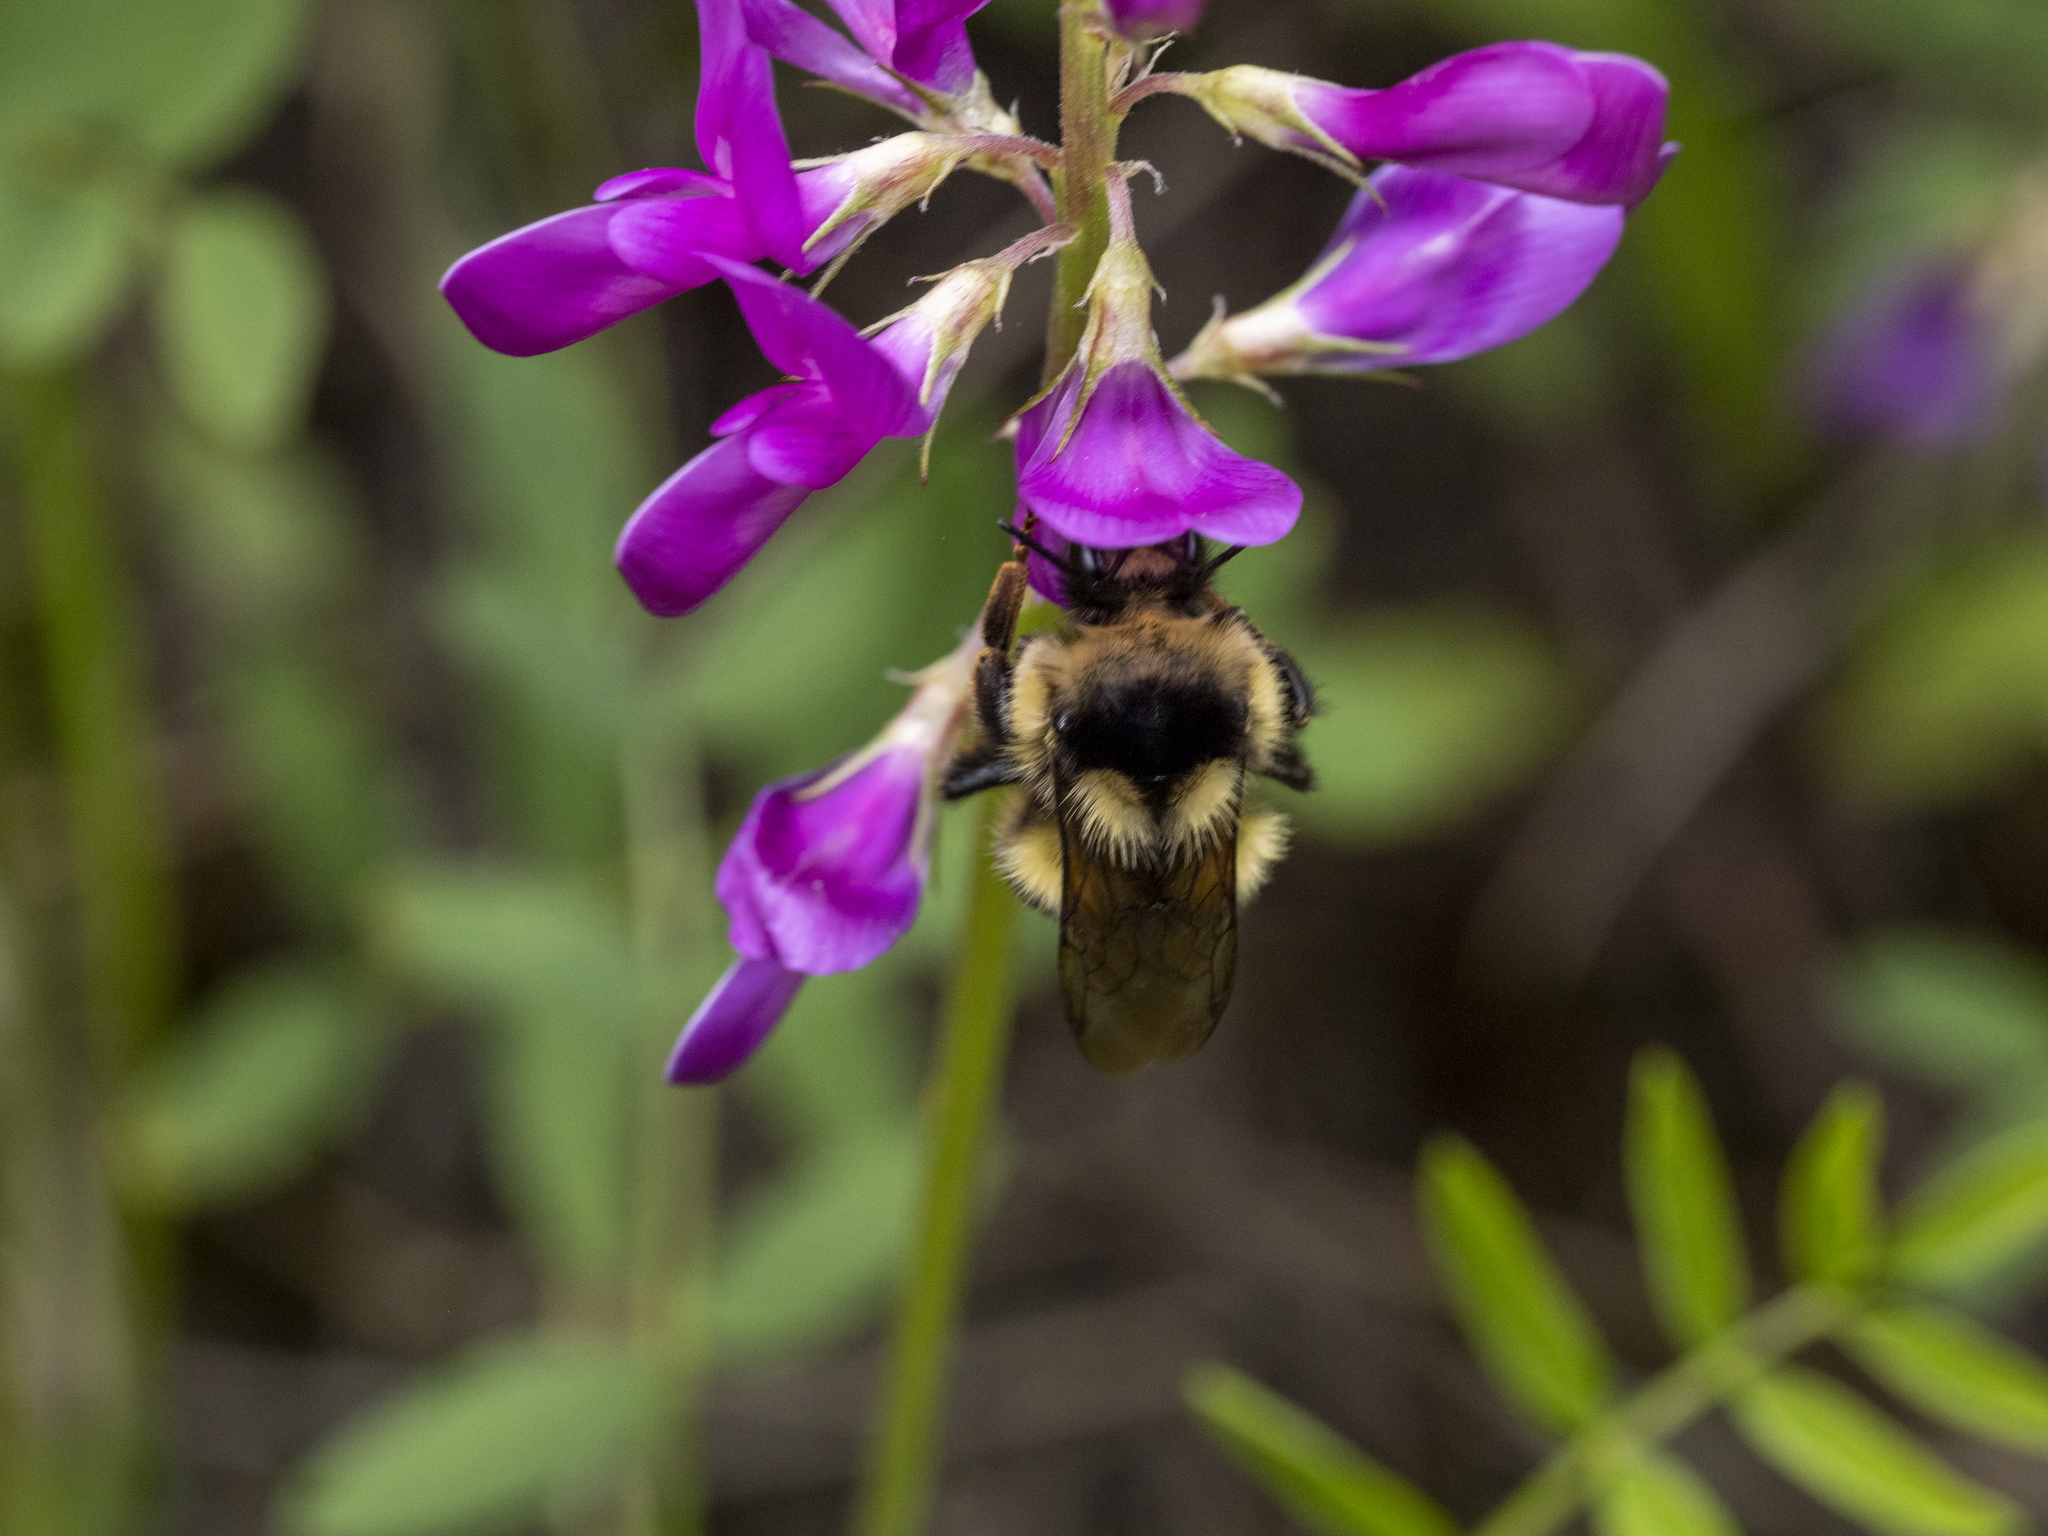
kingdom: Animalia
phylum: Arthropoda
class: Insecta
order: Hymenoptera
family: Apidae
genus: Bombus
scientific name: Bombus vancouverensis
